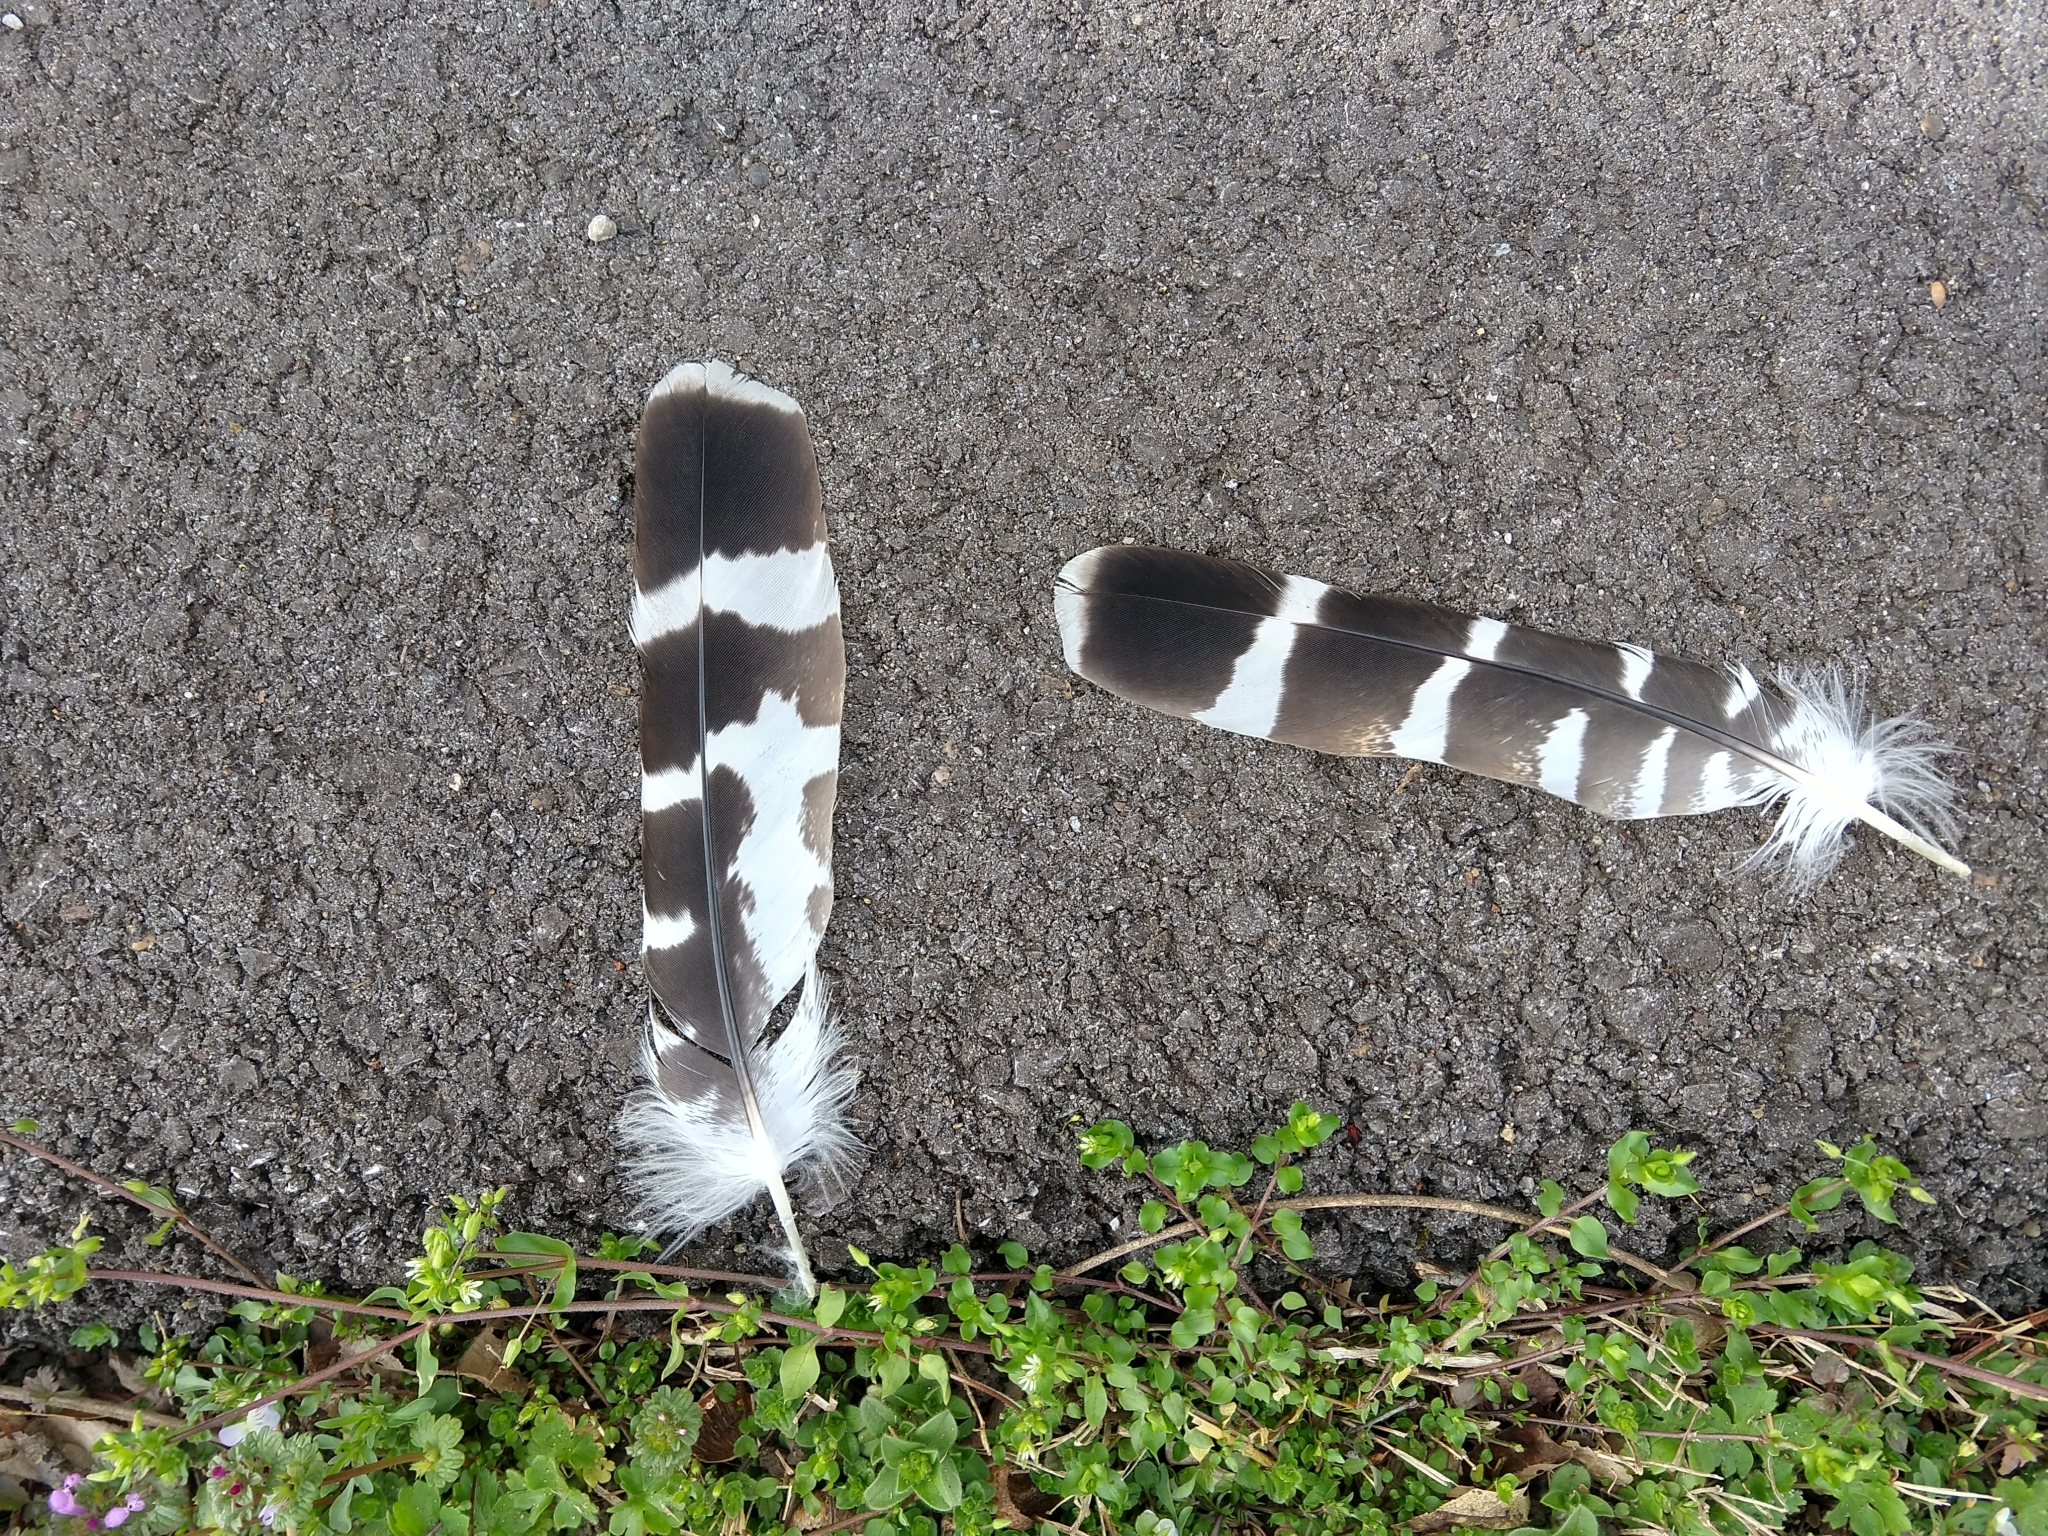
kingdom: Animalia
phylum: Chordata
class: Aves
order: Accipitriformes
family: Accipitridae
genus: Buteo
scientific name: Buteo lineatus
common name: Red-shouldered hawk
